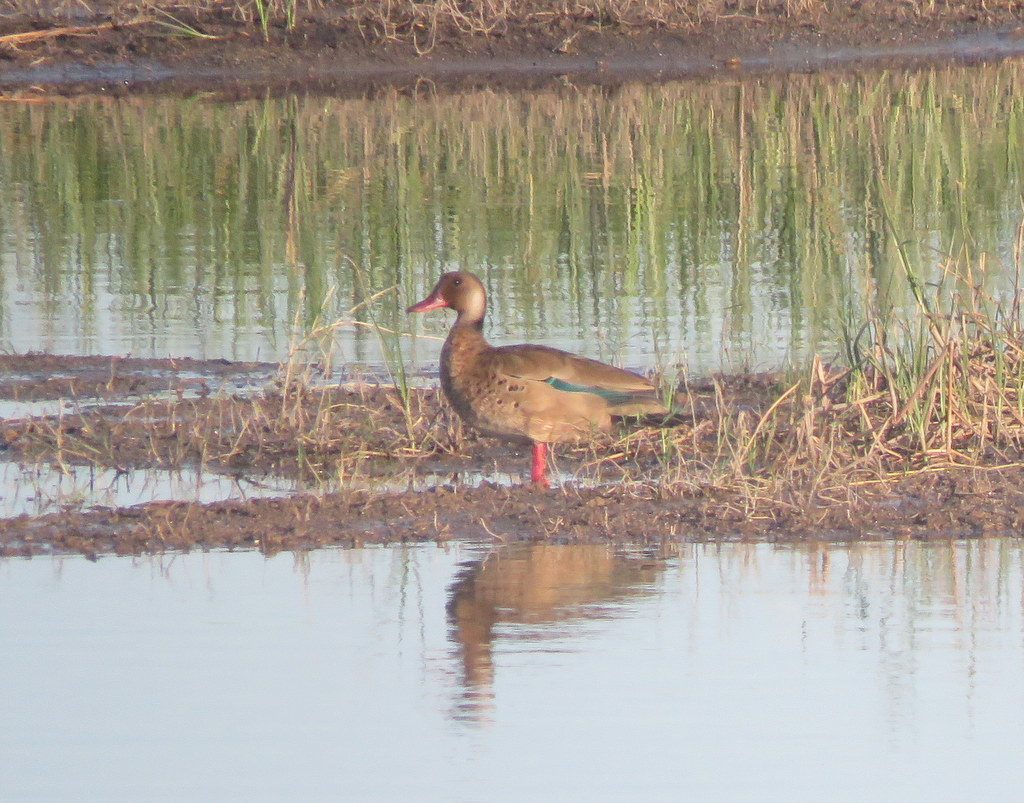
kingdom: Animalia
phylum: Chordata
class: Aves
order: Anseriformes
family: Anatidae
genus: Amazonetta
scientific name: Amazonetta brasiliensis
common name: Brazilian teal
